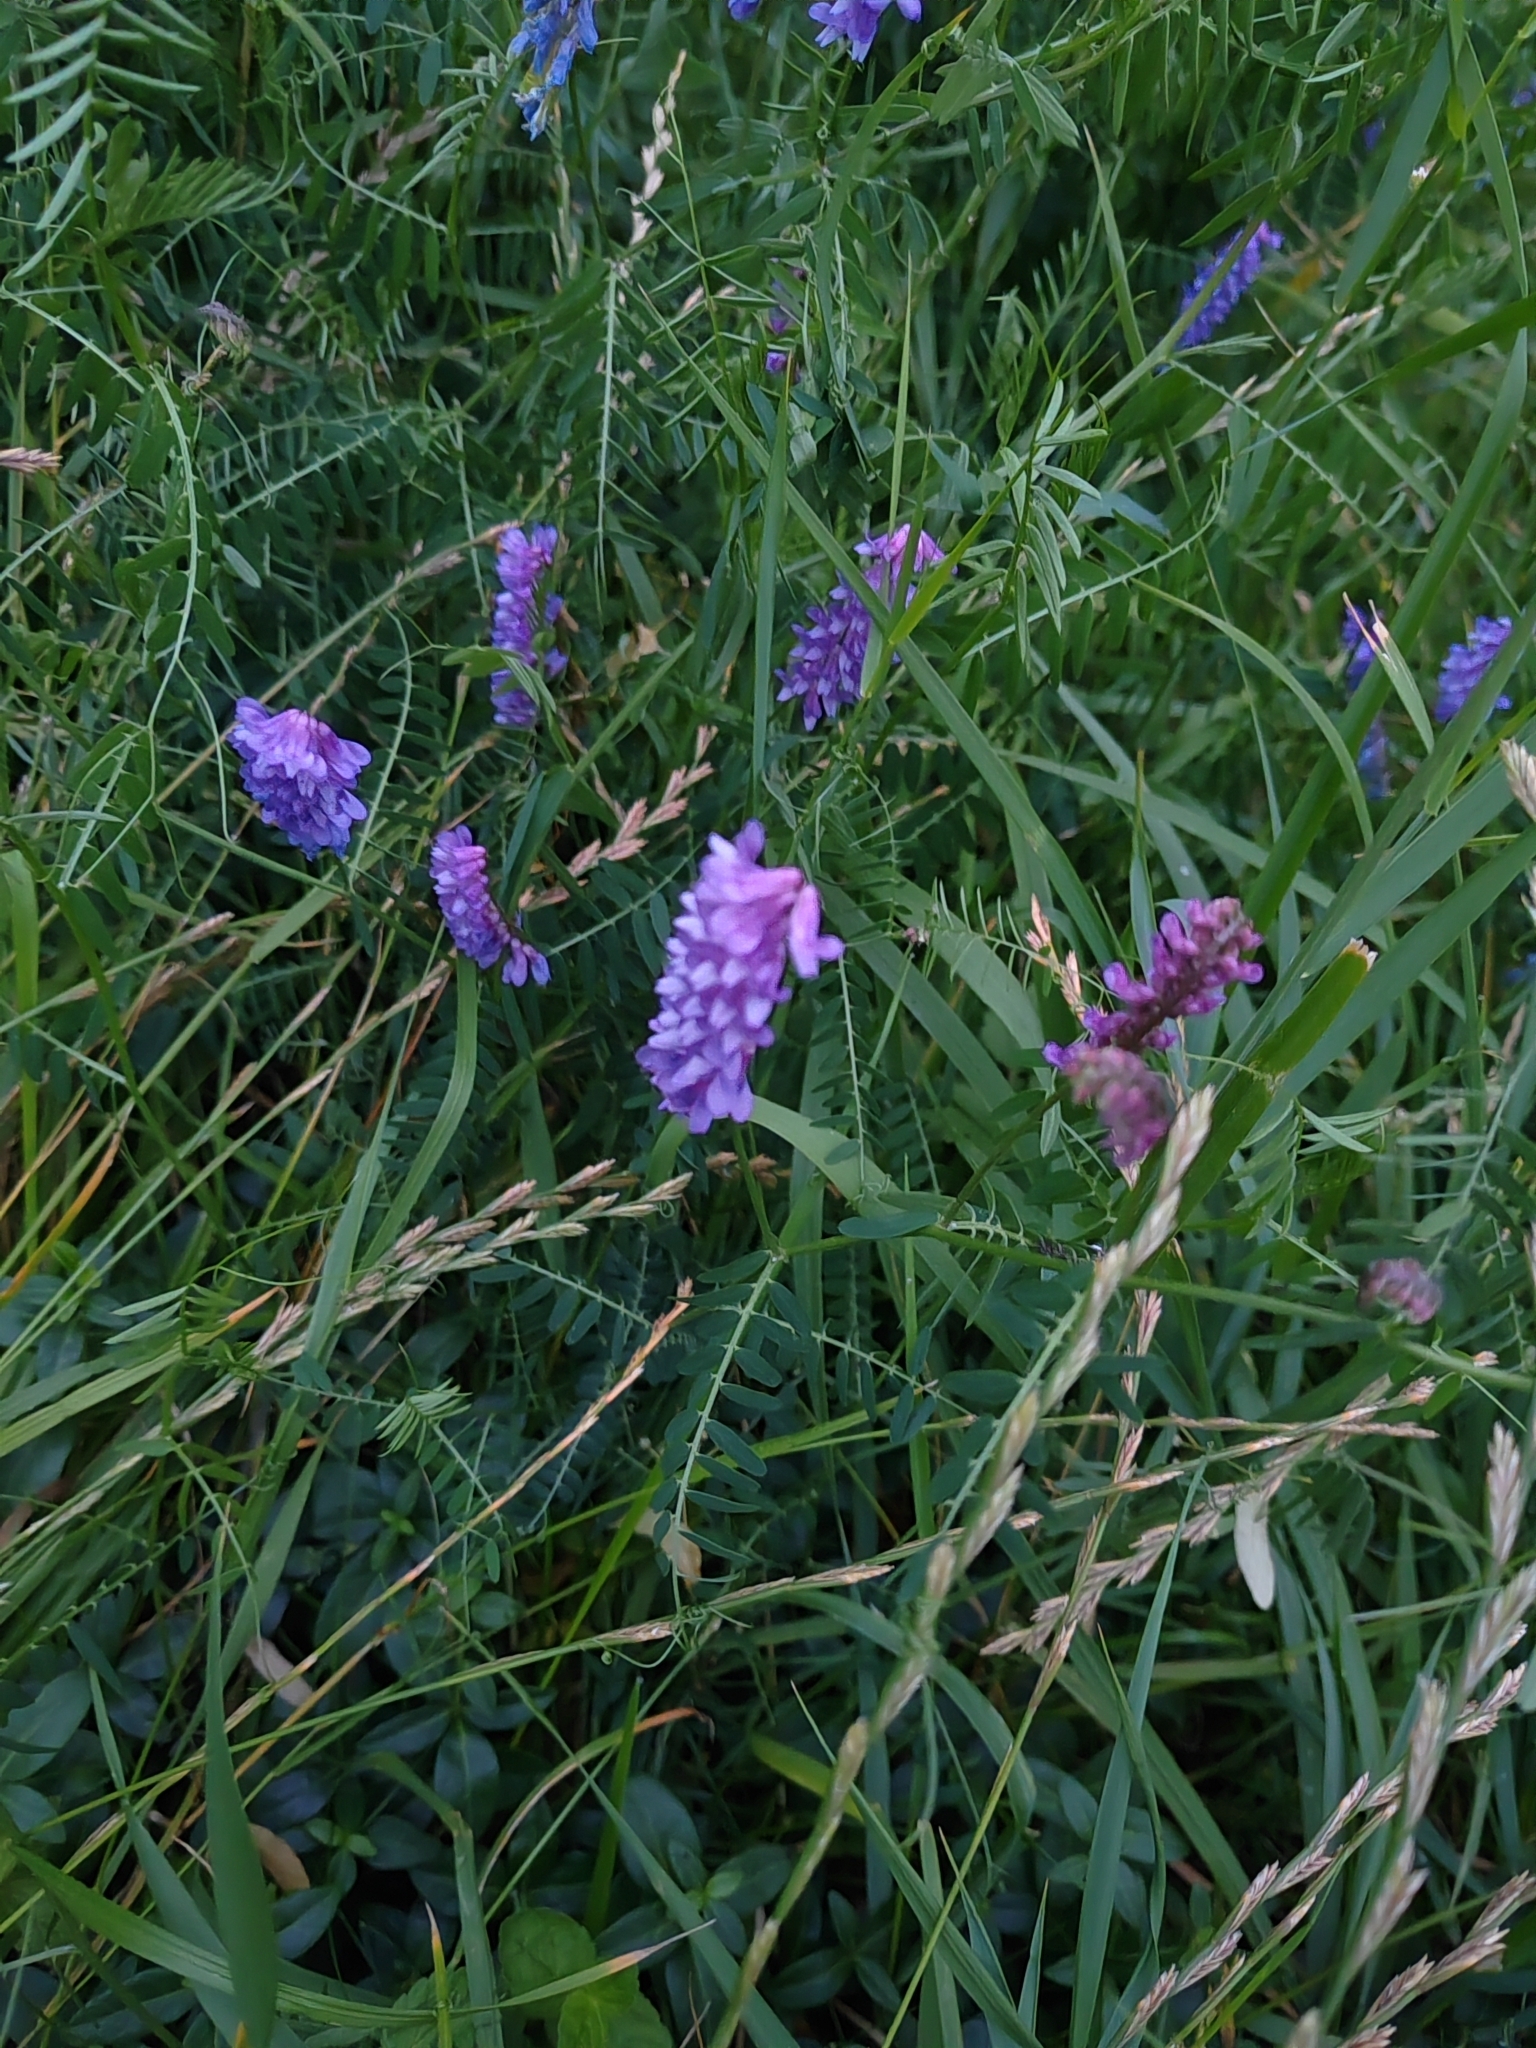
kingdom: Plantae
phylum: Tracheophyta
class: Magnoliopsida
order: Fabales
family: Fabaceae
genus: Vicia
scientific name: Vicia cracca
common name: Bird vetch
